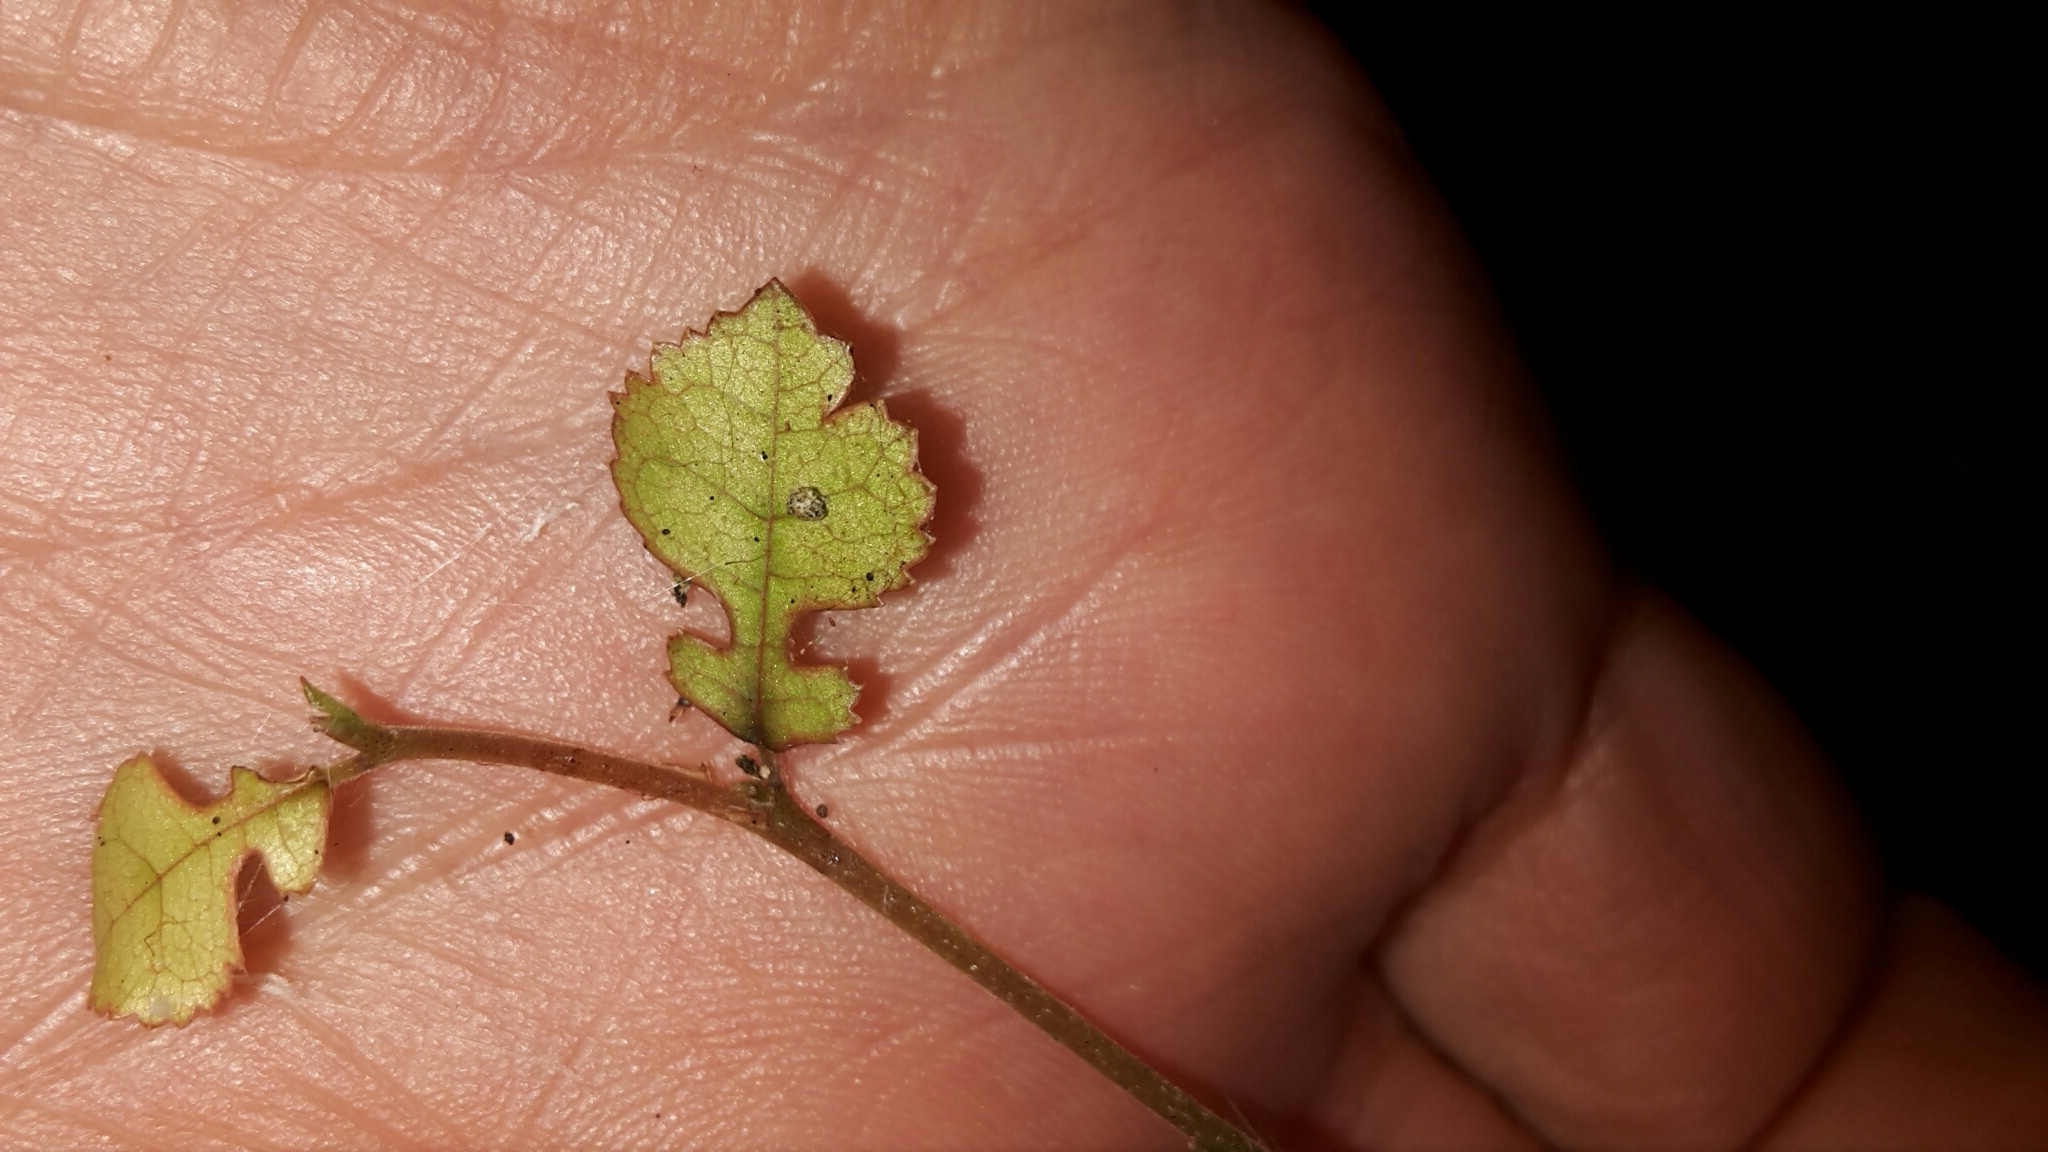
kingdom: Plantae
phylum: Tracheophyta
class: Magnoliopsida
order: Rosales
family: Moraceae
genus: Paratrophis
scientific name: Paratrophis microphylla
